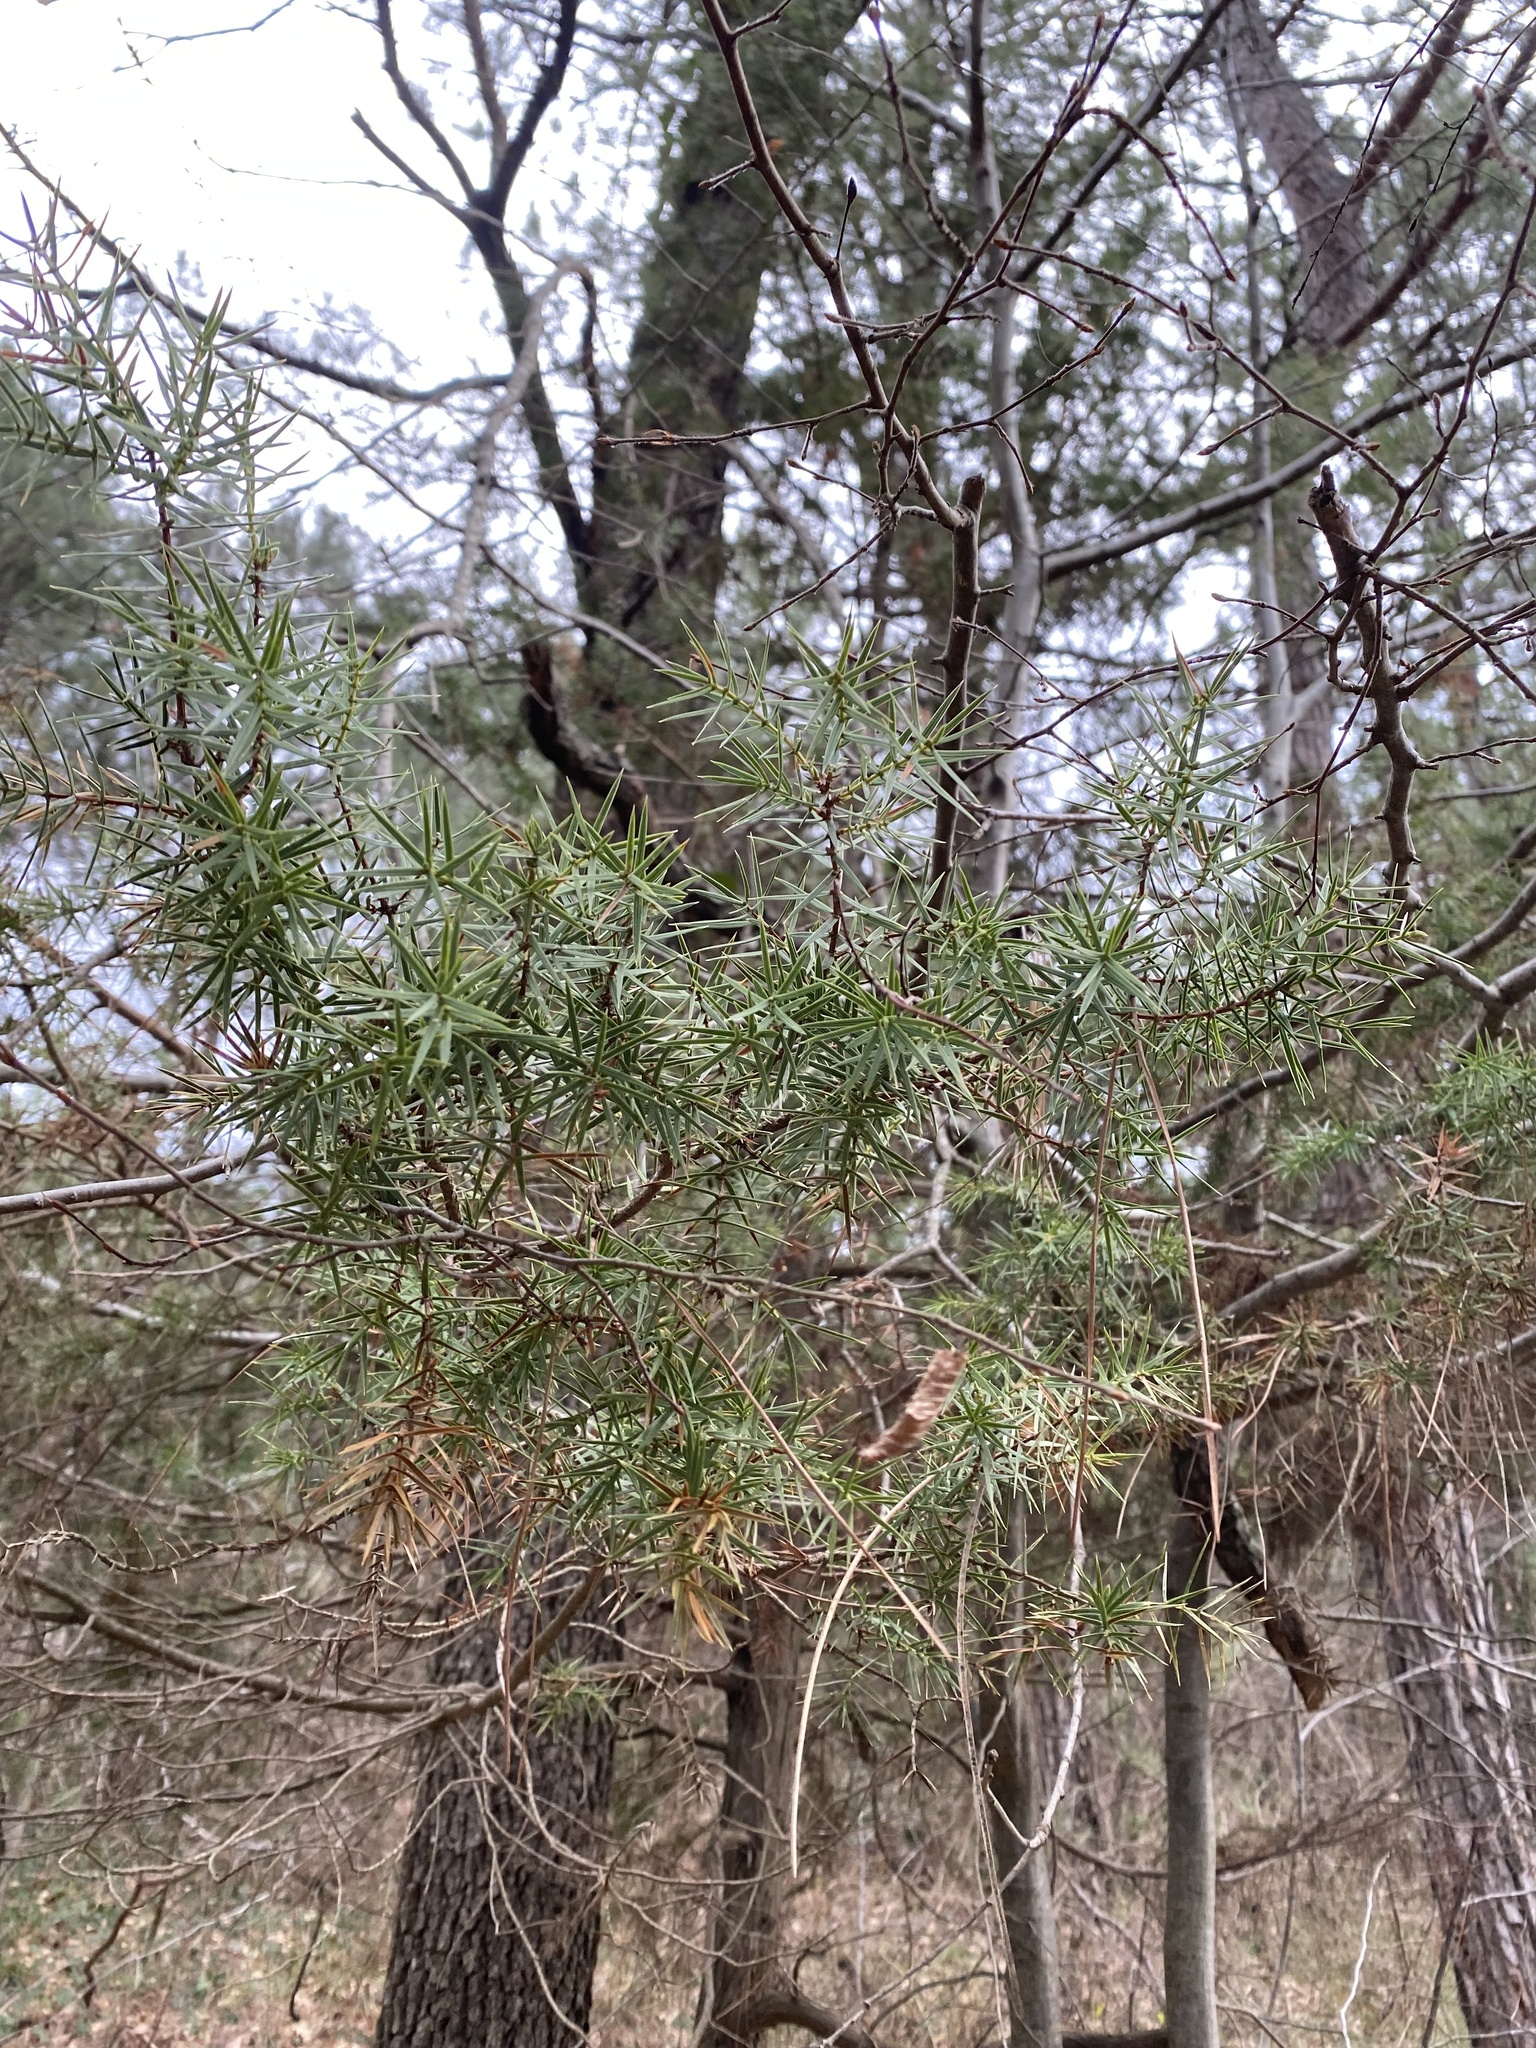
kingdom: Plantae
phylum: Tracheophyta
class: Pinopsida
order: Pinales
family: Cupressaceae
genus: Juniperus
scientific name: Juniperus oxycedrus
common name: Prickly juniper
